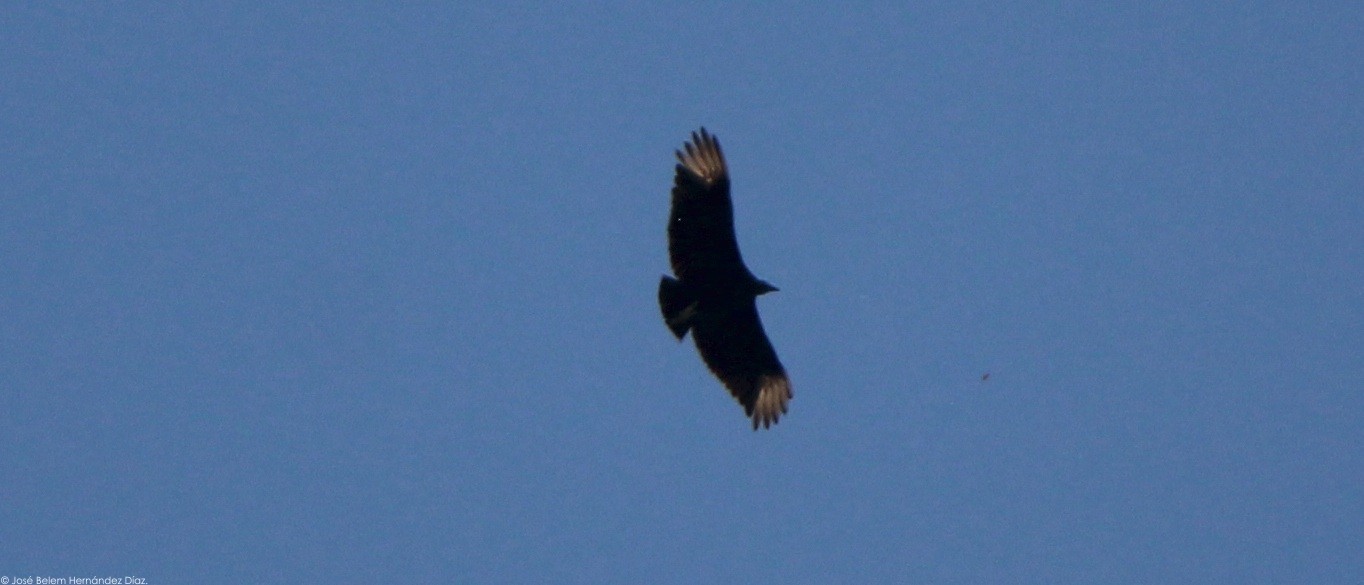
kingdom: Animalia
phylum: Chordata
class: Aves
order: Accipitriformes
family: Cathartidae
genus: Coragyps
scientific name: Coragyps atratus
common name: Black vulture
